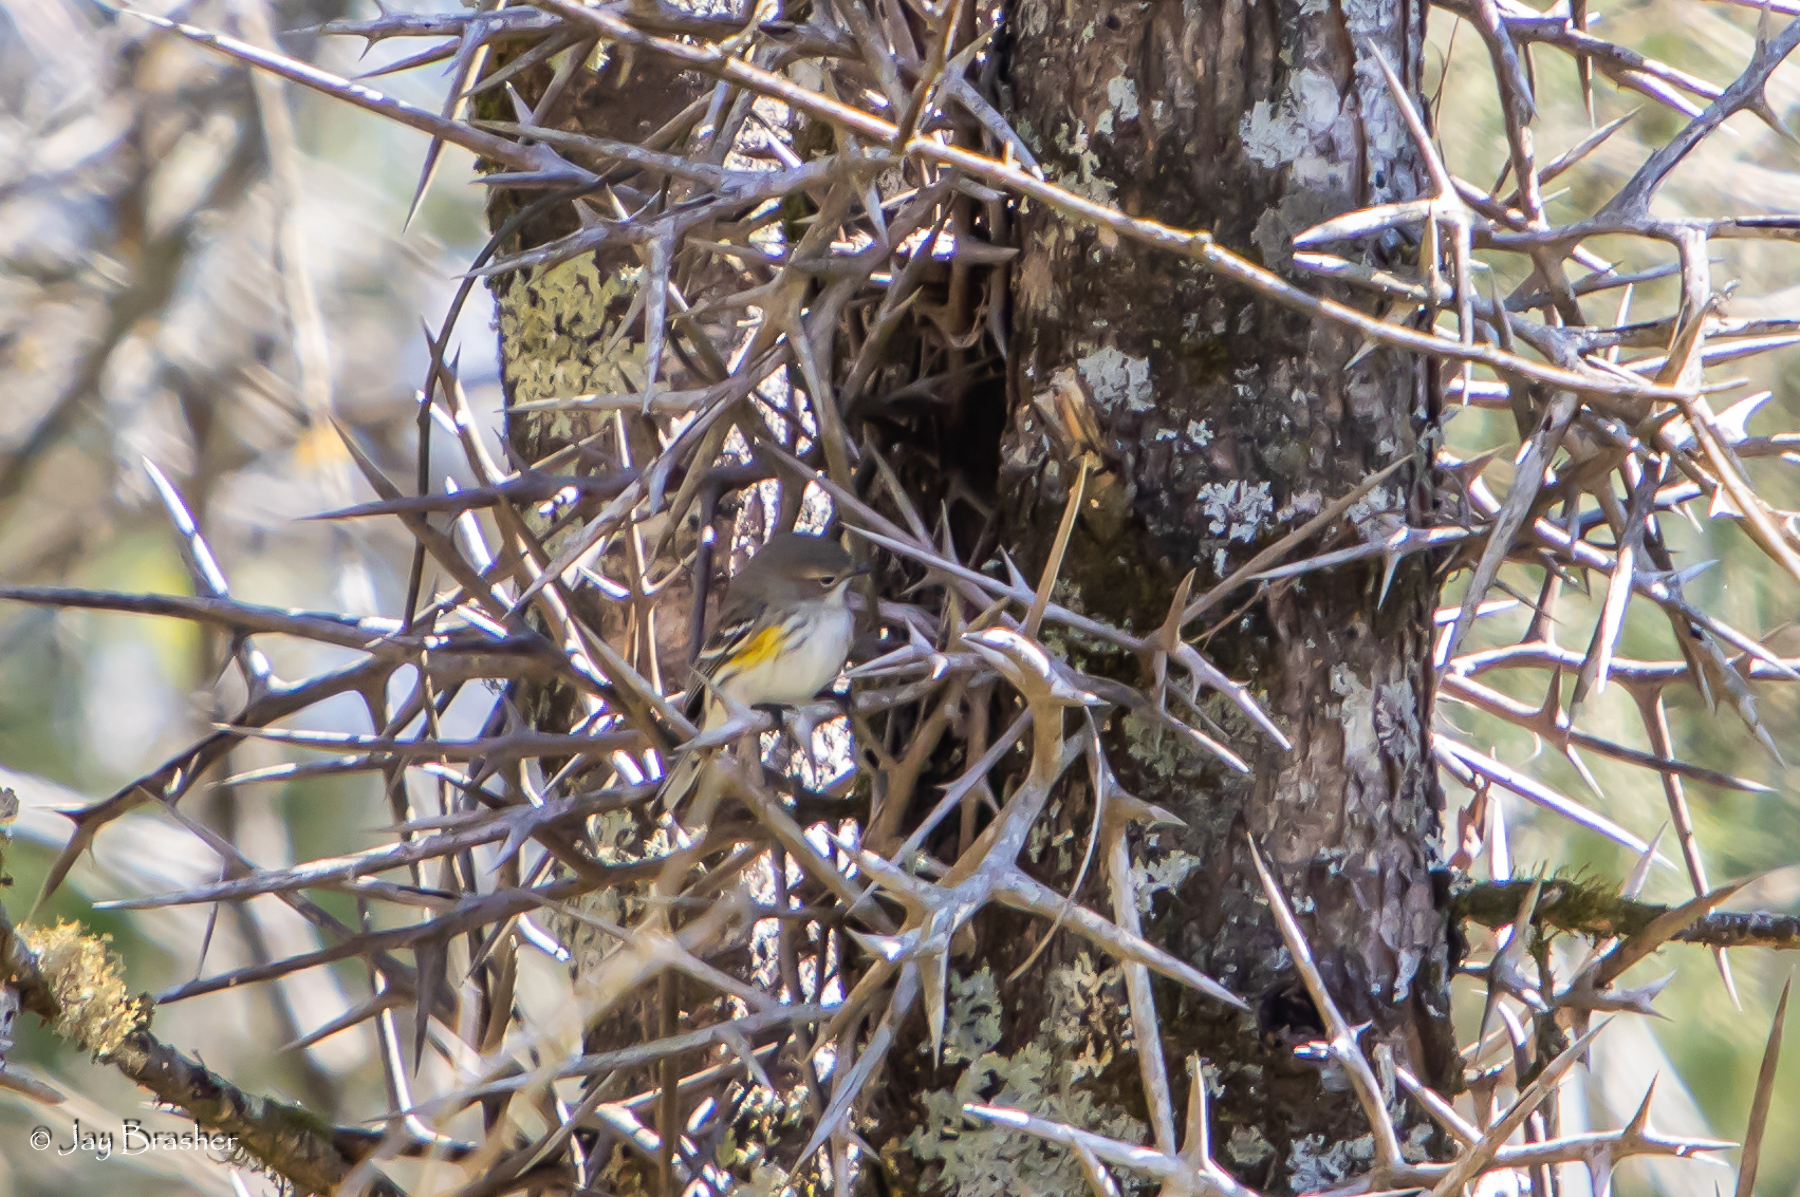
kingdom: Animalia
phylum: Chordata
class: Aves
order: Passeriformes
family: Parulidae
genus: Setophaga
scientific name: Setophaga coronata
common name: Myrtle warbler
